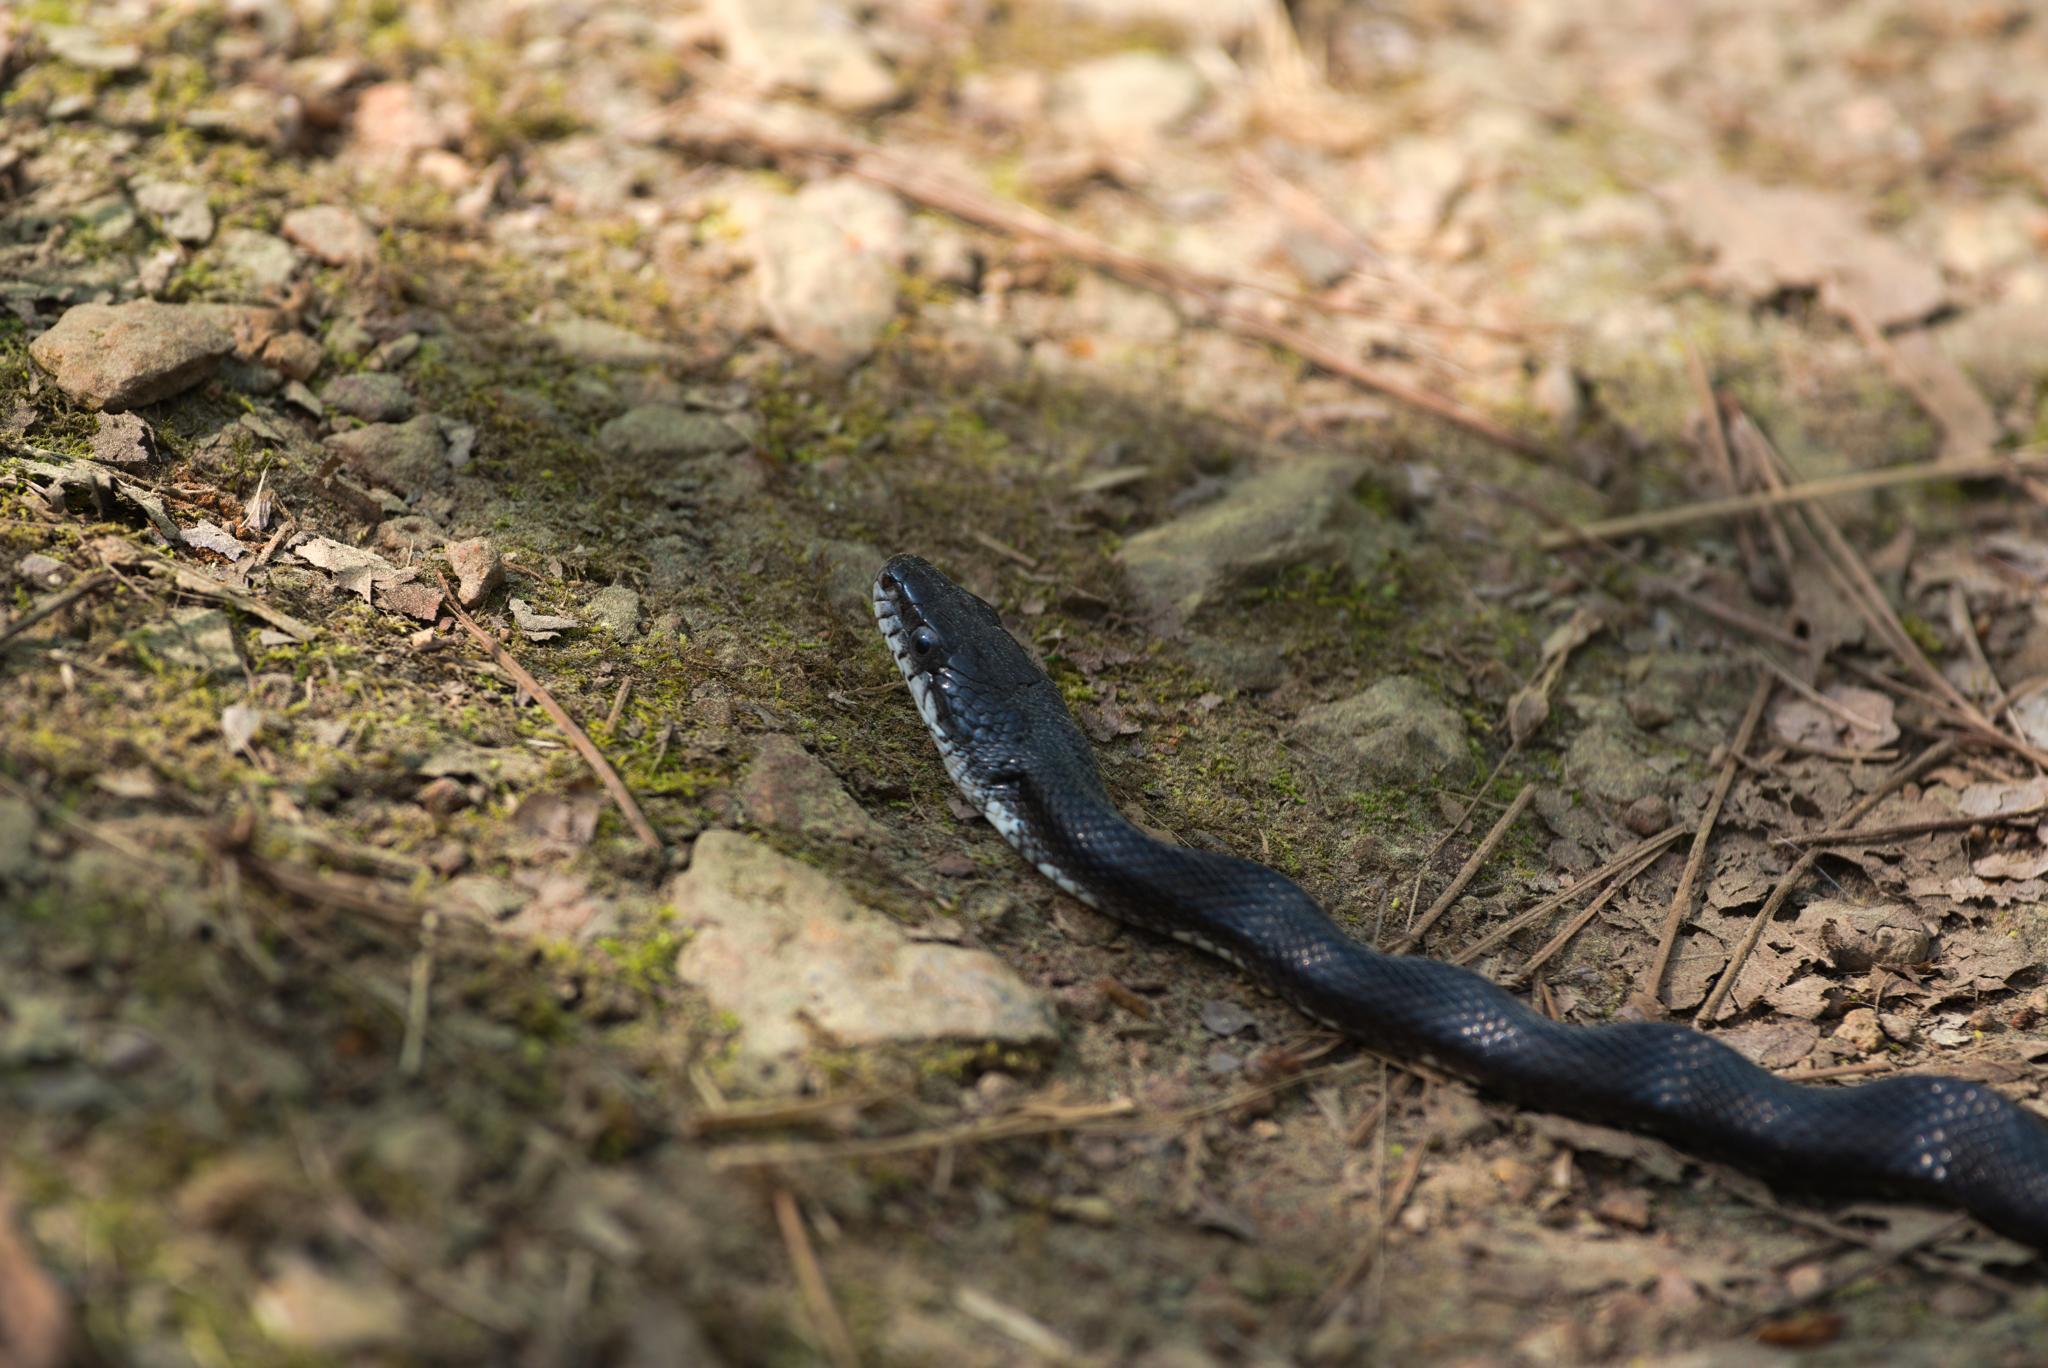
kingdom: Animalia
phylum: Chordata
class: Squamata
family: Colubridae
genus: Pantherophis
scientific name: Pantherophis alleghaniensis
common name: Eastern rat snake
